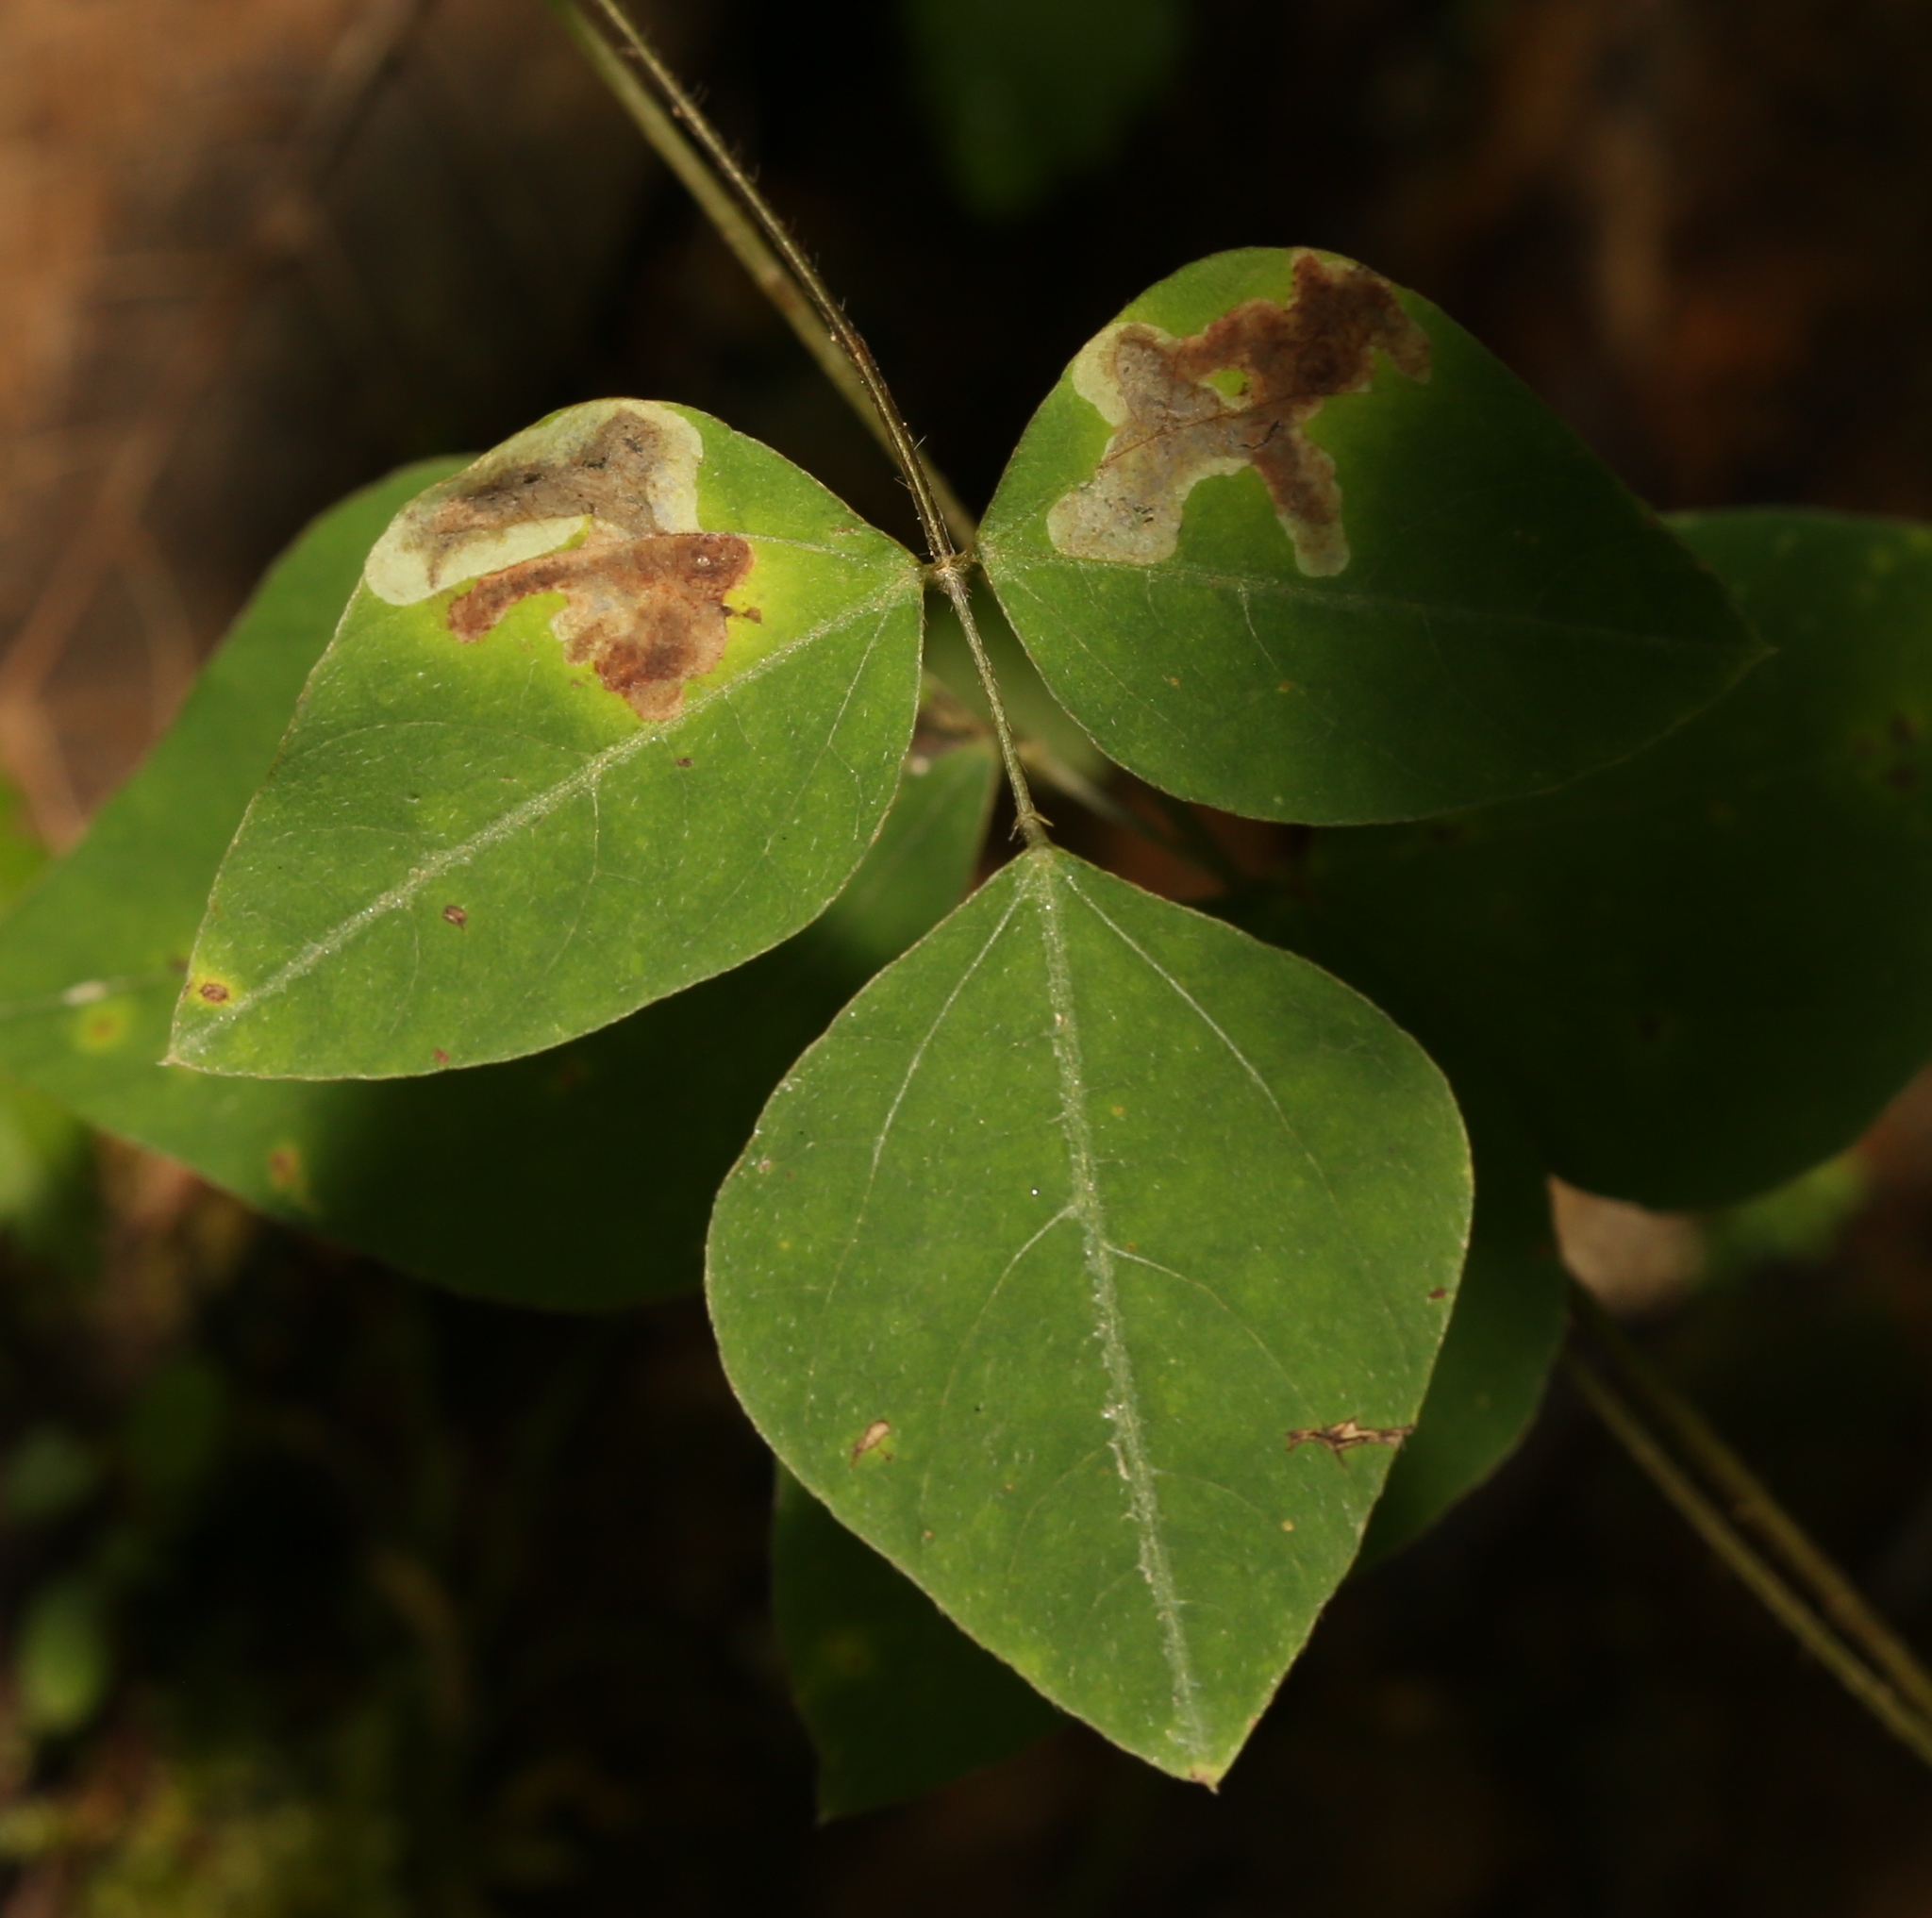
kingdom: Animalia
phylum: Arthropoda
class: Insecta
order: Lepidoptera
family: Gracillariidae
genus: Leucanthiza
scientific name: Leucanthiza amphicarpeaefoliella
